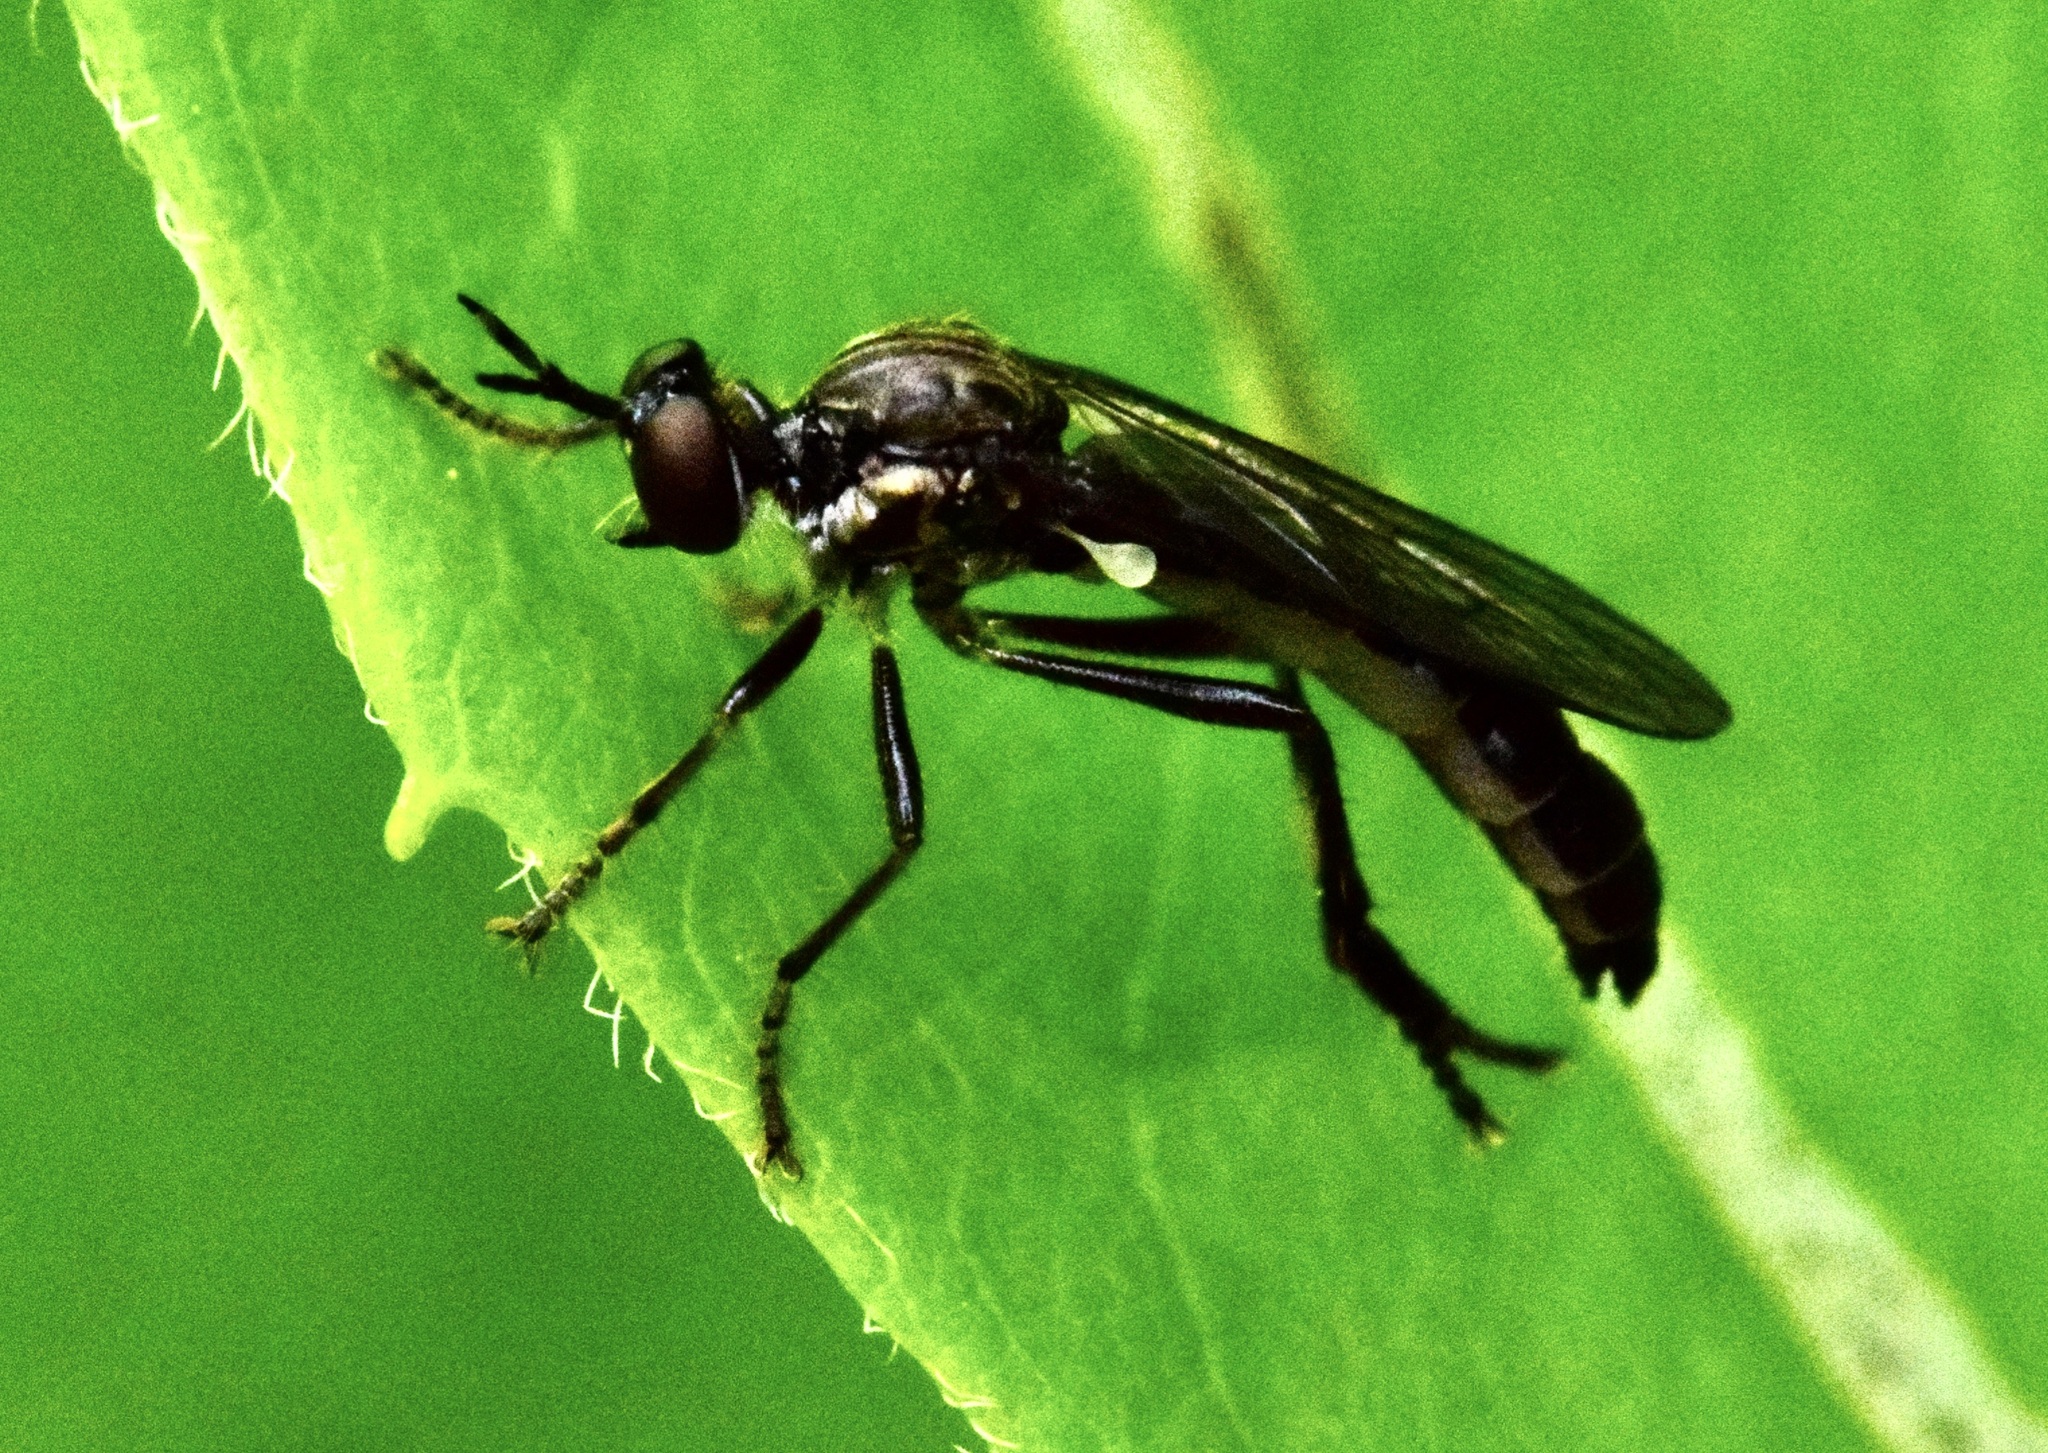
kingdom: Animalia
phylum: Arthropoda
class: Insecta
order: Diptera
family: Asilidae
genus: Dioctria
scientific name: Dioctria hyalipennis
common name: Stripe-legged robberfly
